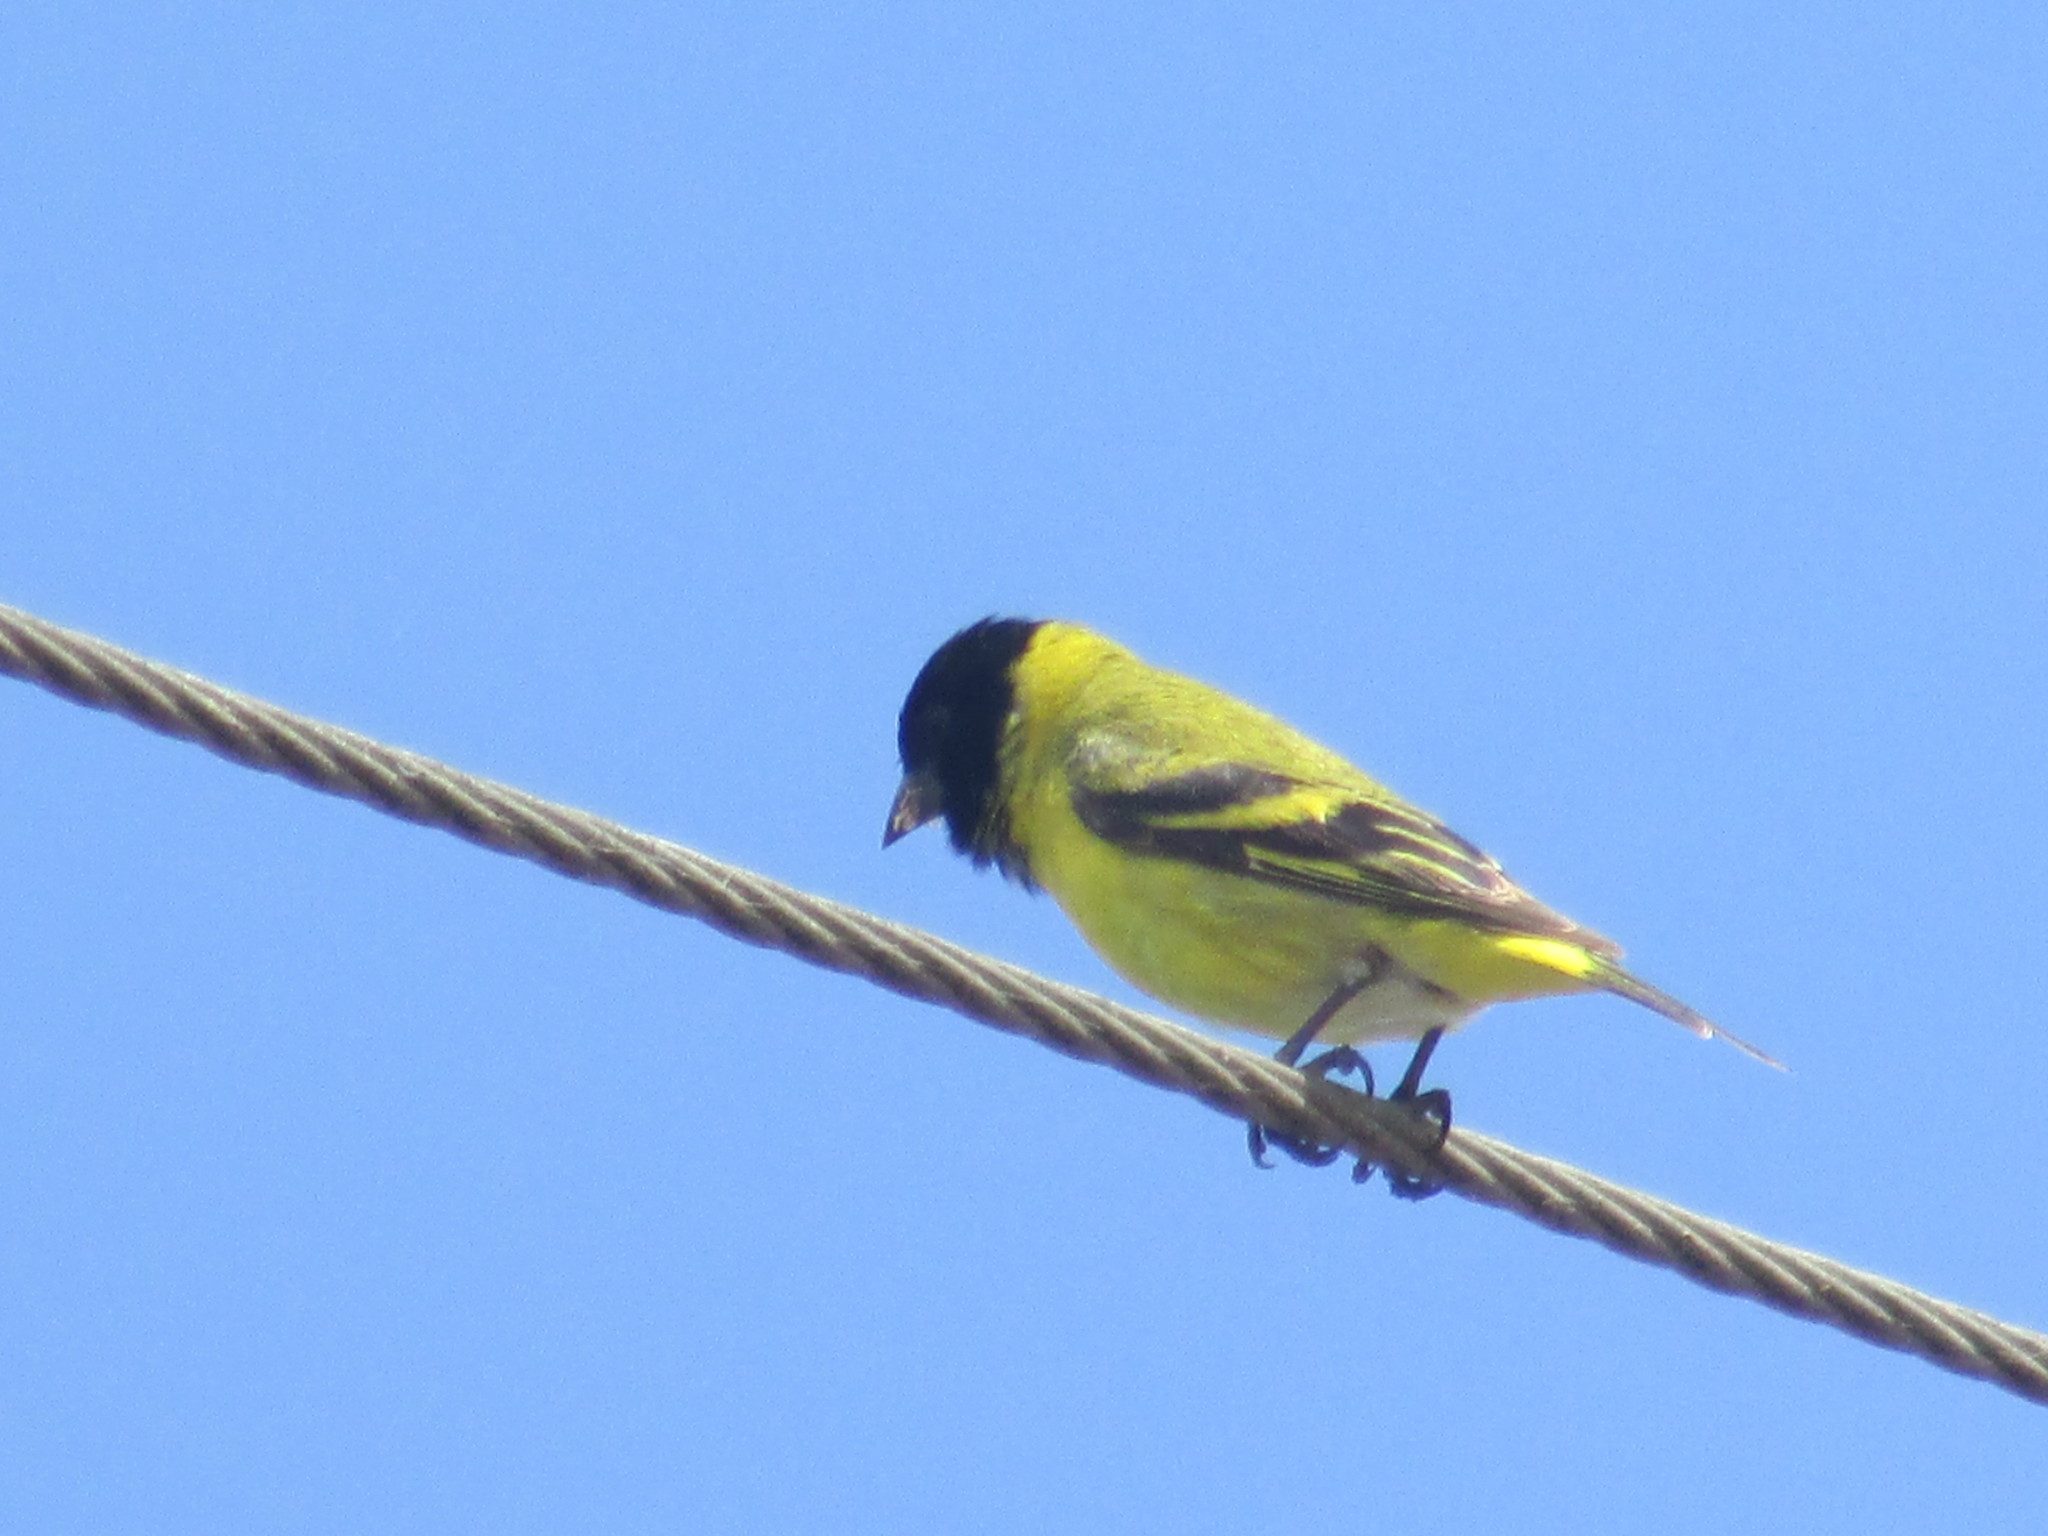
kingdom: Animalia
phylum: Chordata
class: Aves
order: Passeriformes
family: Fringillidae
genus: Spinus
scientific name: Spinus magellanicus
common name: Hooded siskin
